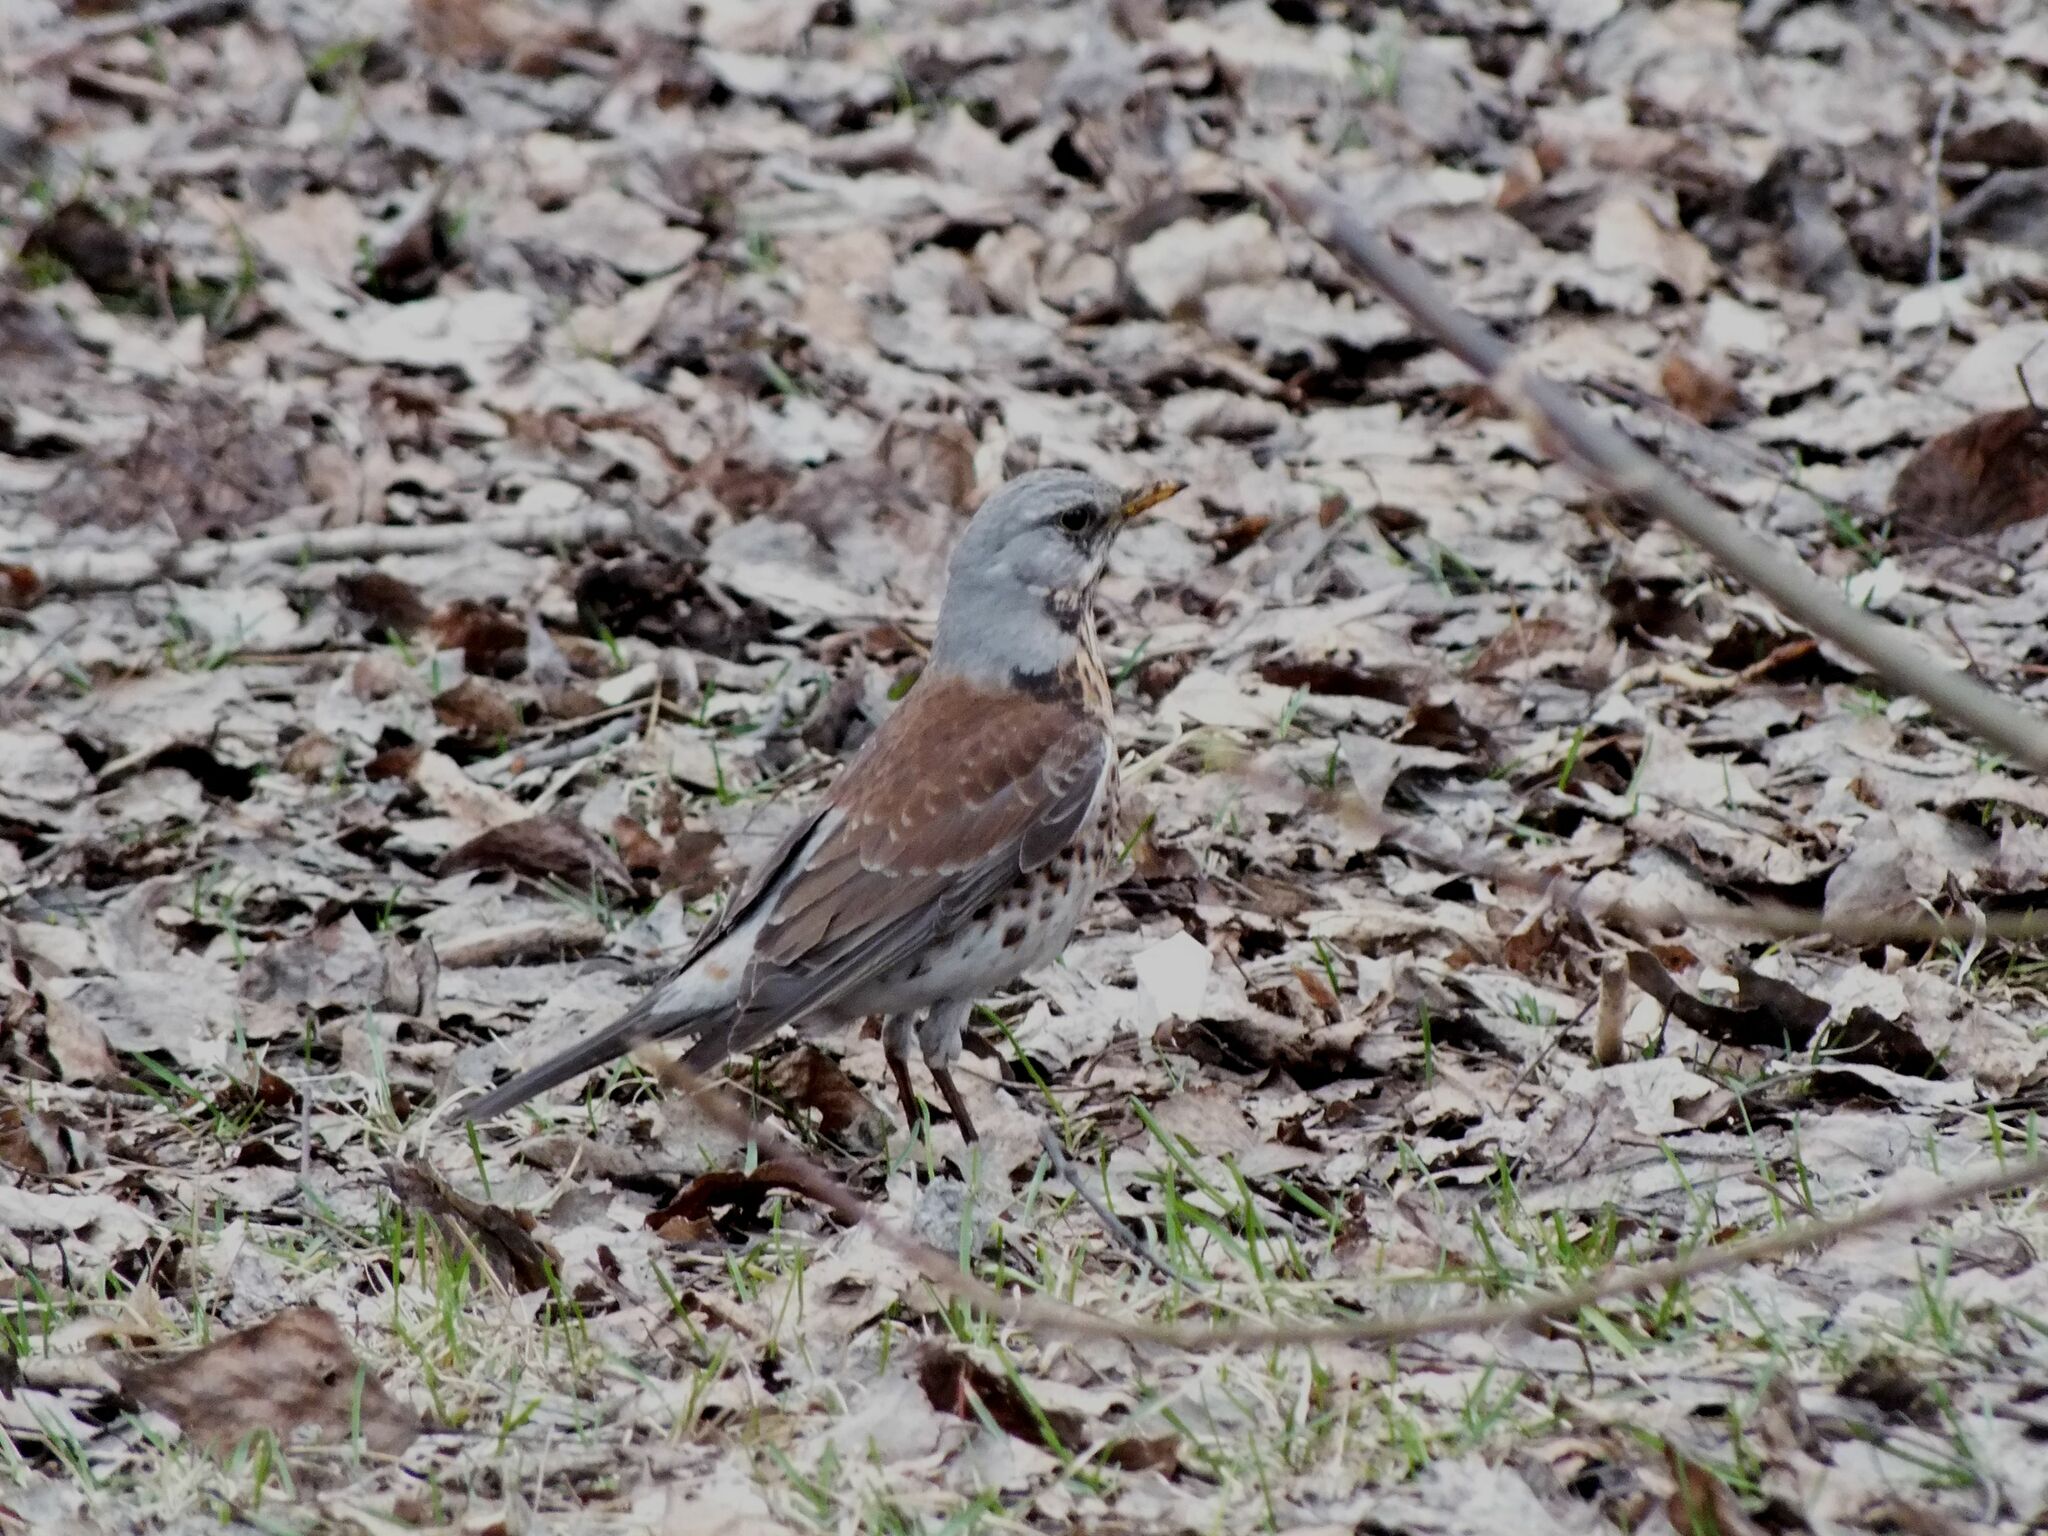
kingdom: Animalia
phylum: Chordata
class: Aves
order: Passeriformes
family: Turdidae
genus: Turdus
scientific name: Turdus pilaris
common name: Fieldfare
